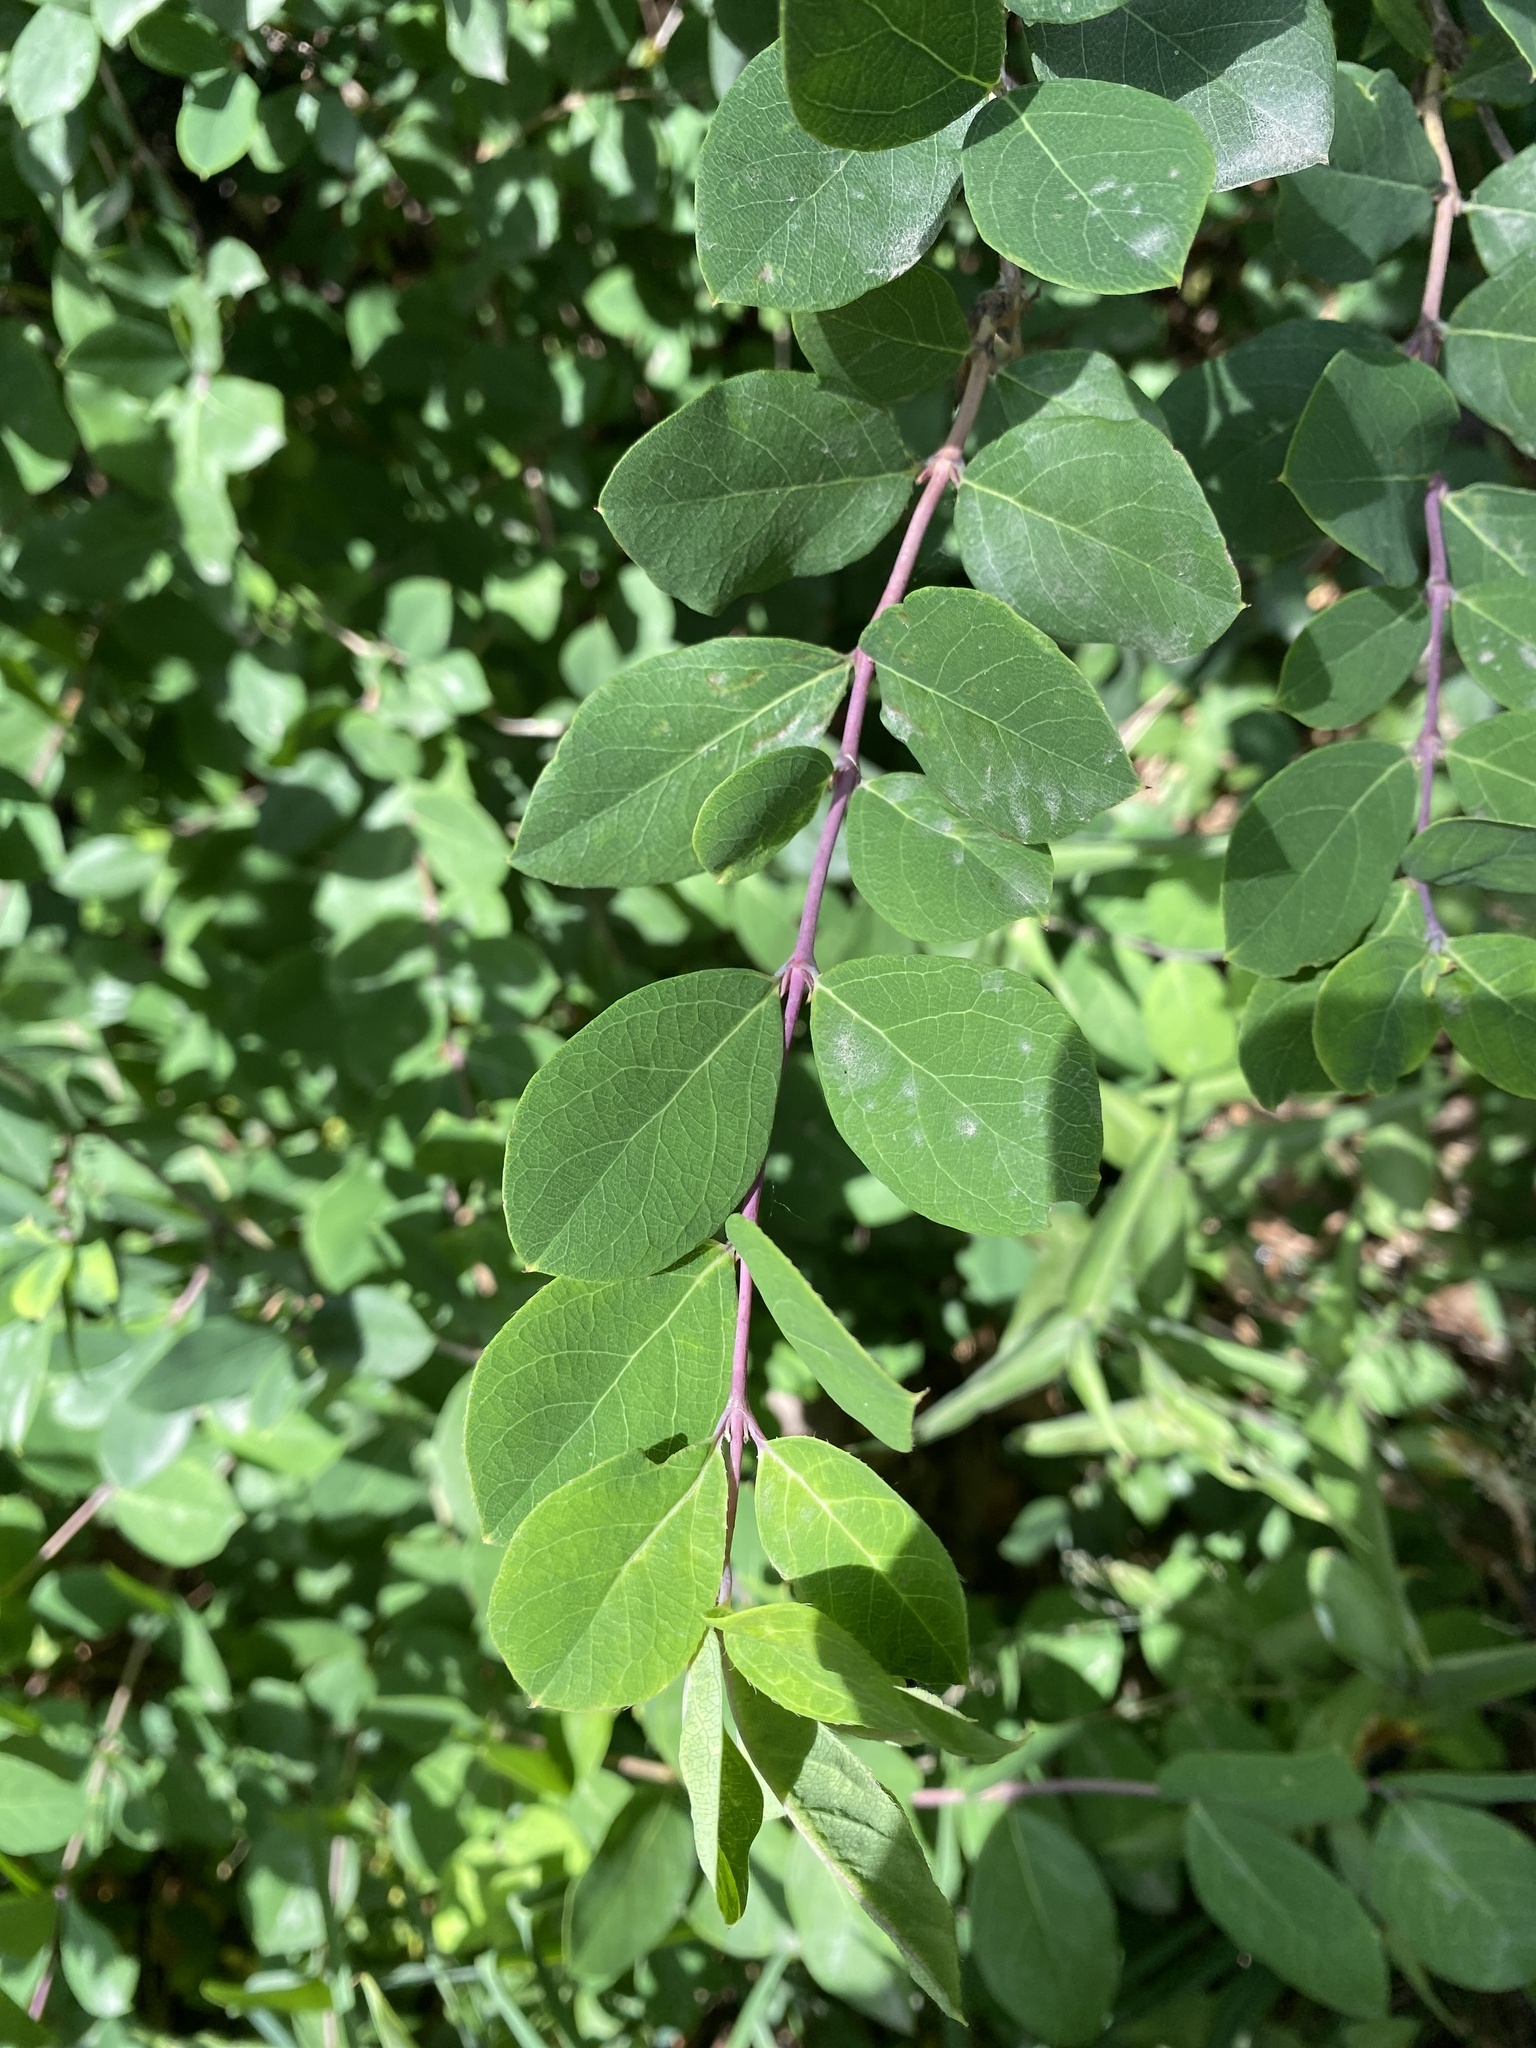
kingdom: Plantae
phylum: Tracheophyta
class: Magnoliopsida
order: Dipsacales
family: Caprifoliaceae
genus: Lonicera
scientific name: Lonicera fragrantissima
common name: Fragrant honeysuckle
